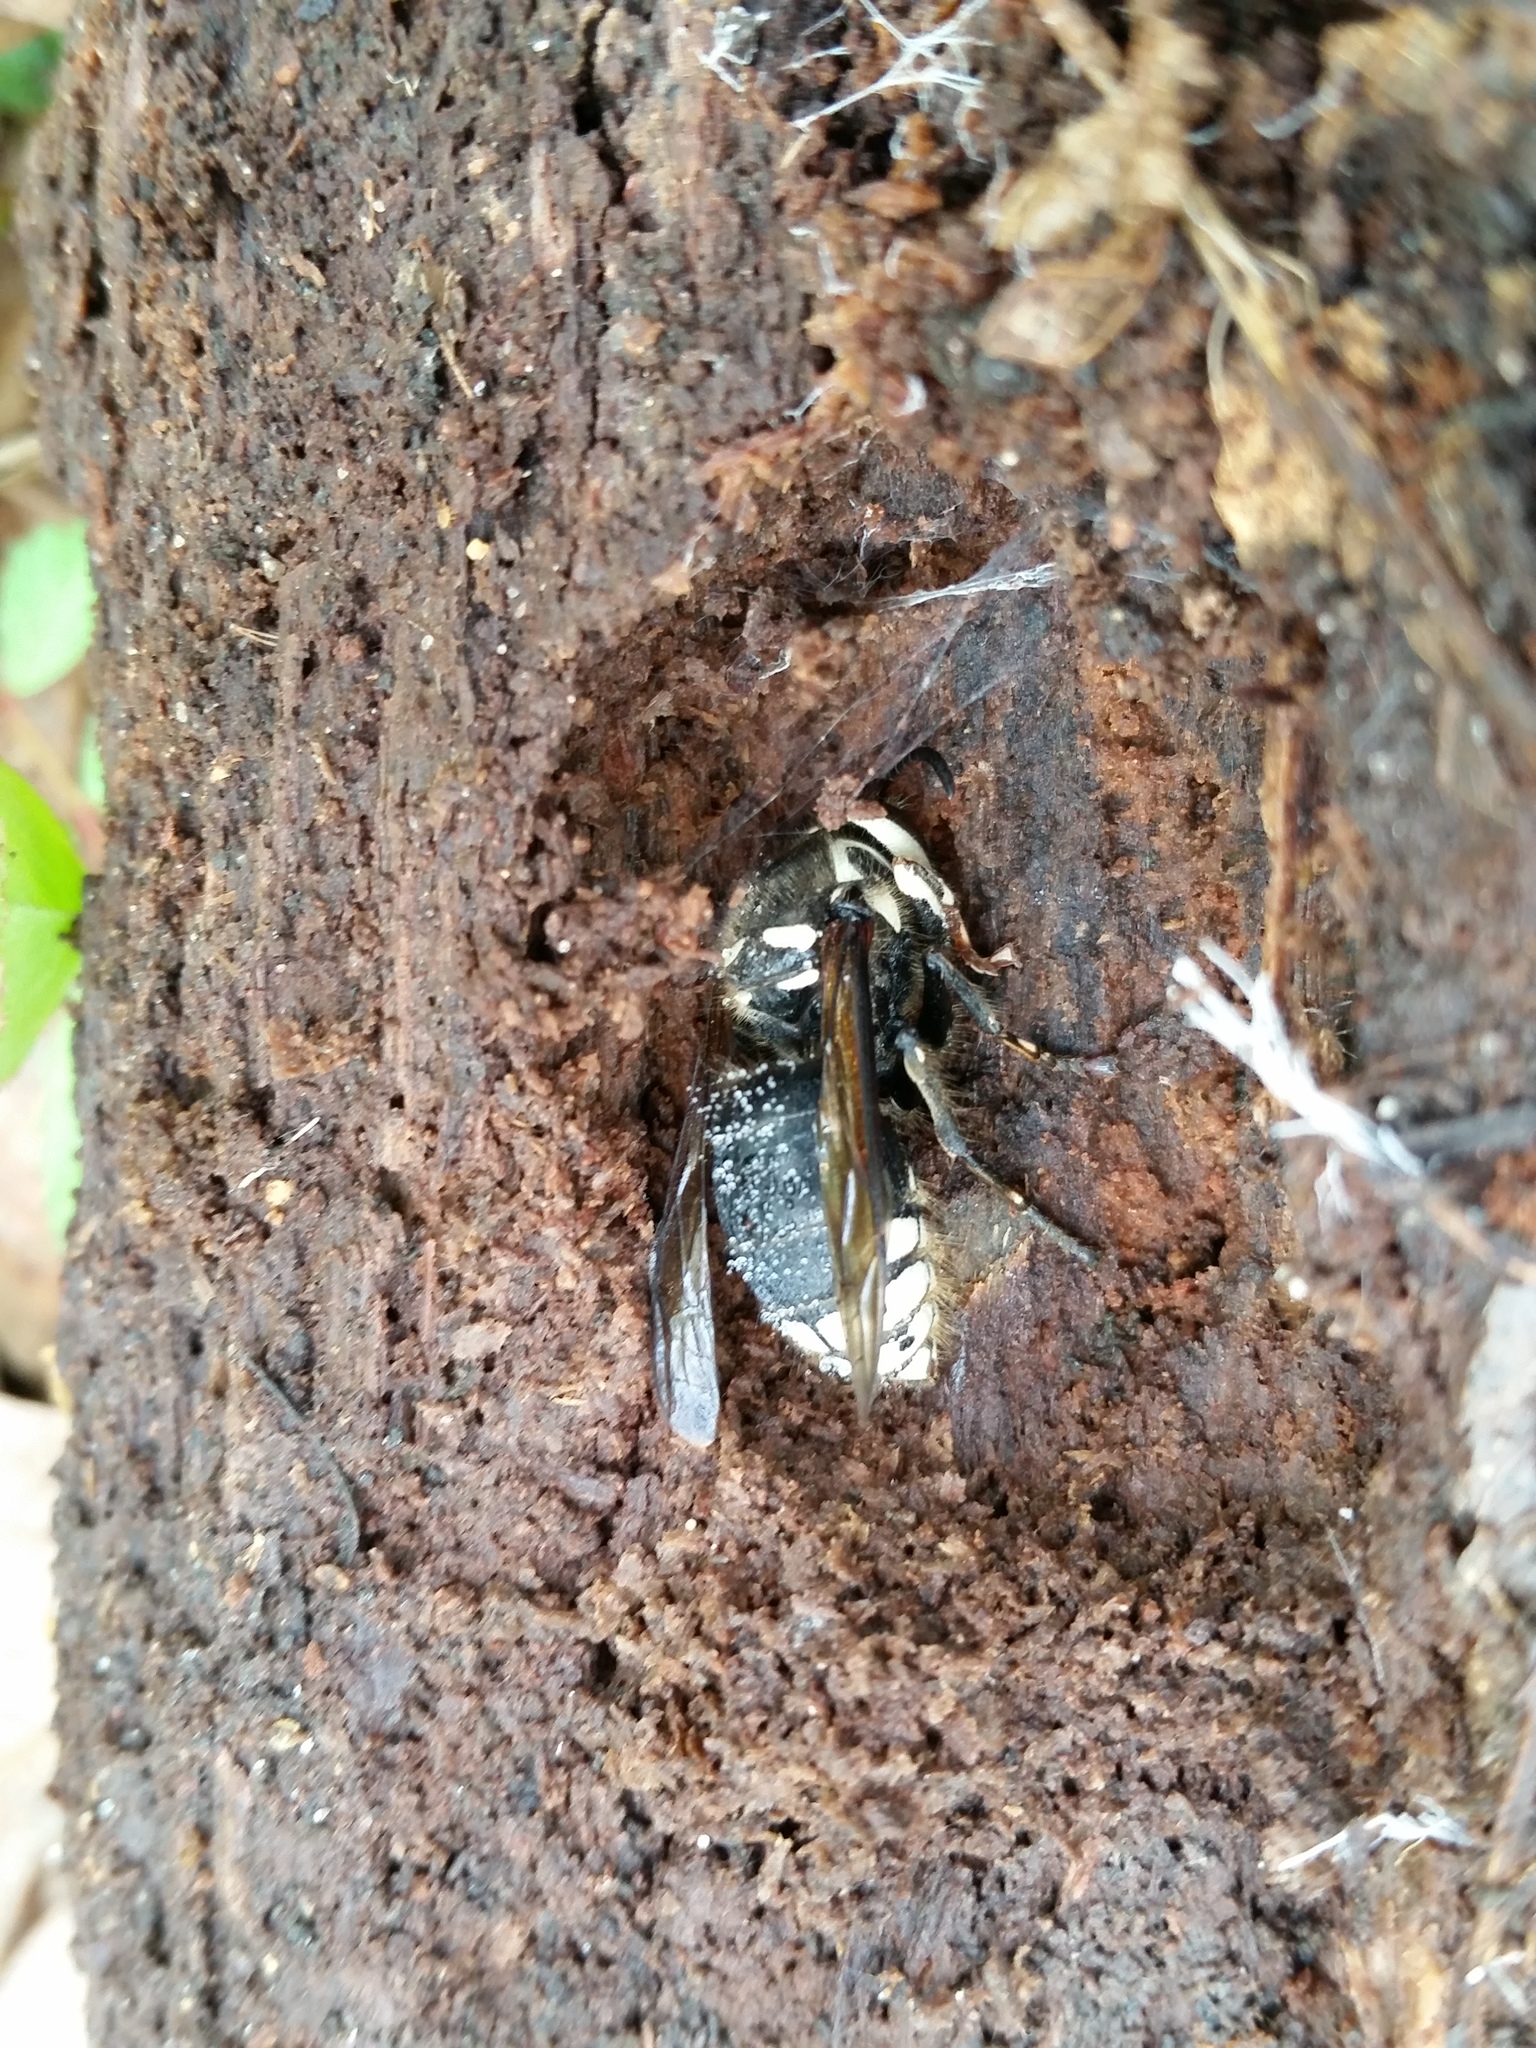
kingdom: Animalia
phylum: Arthropoda
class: Insecta
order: Hymenoptera
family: Vespidae
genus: Dolichovespula
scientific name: Dolichovespula maculata
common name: Bald-faced hornet
